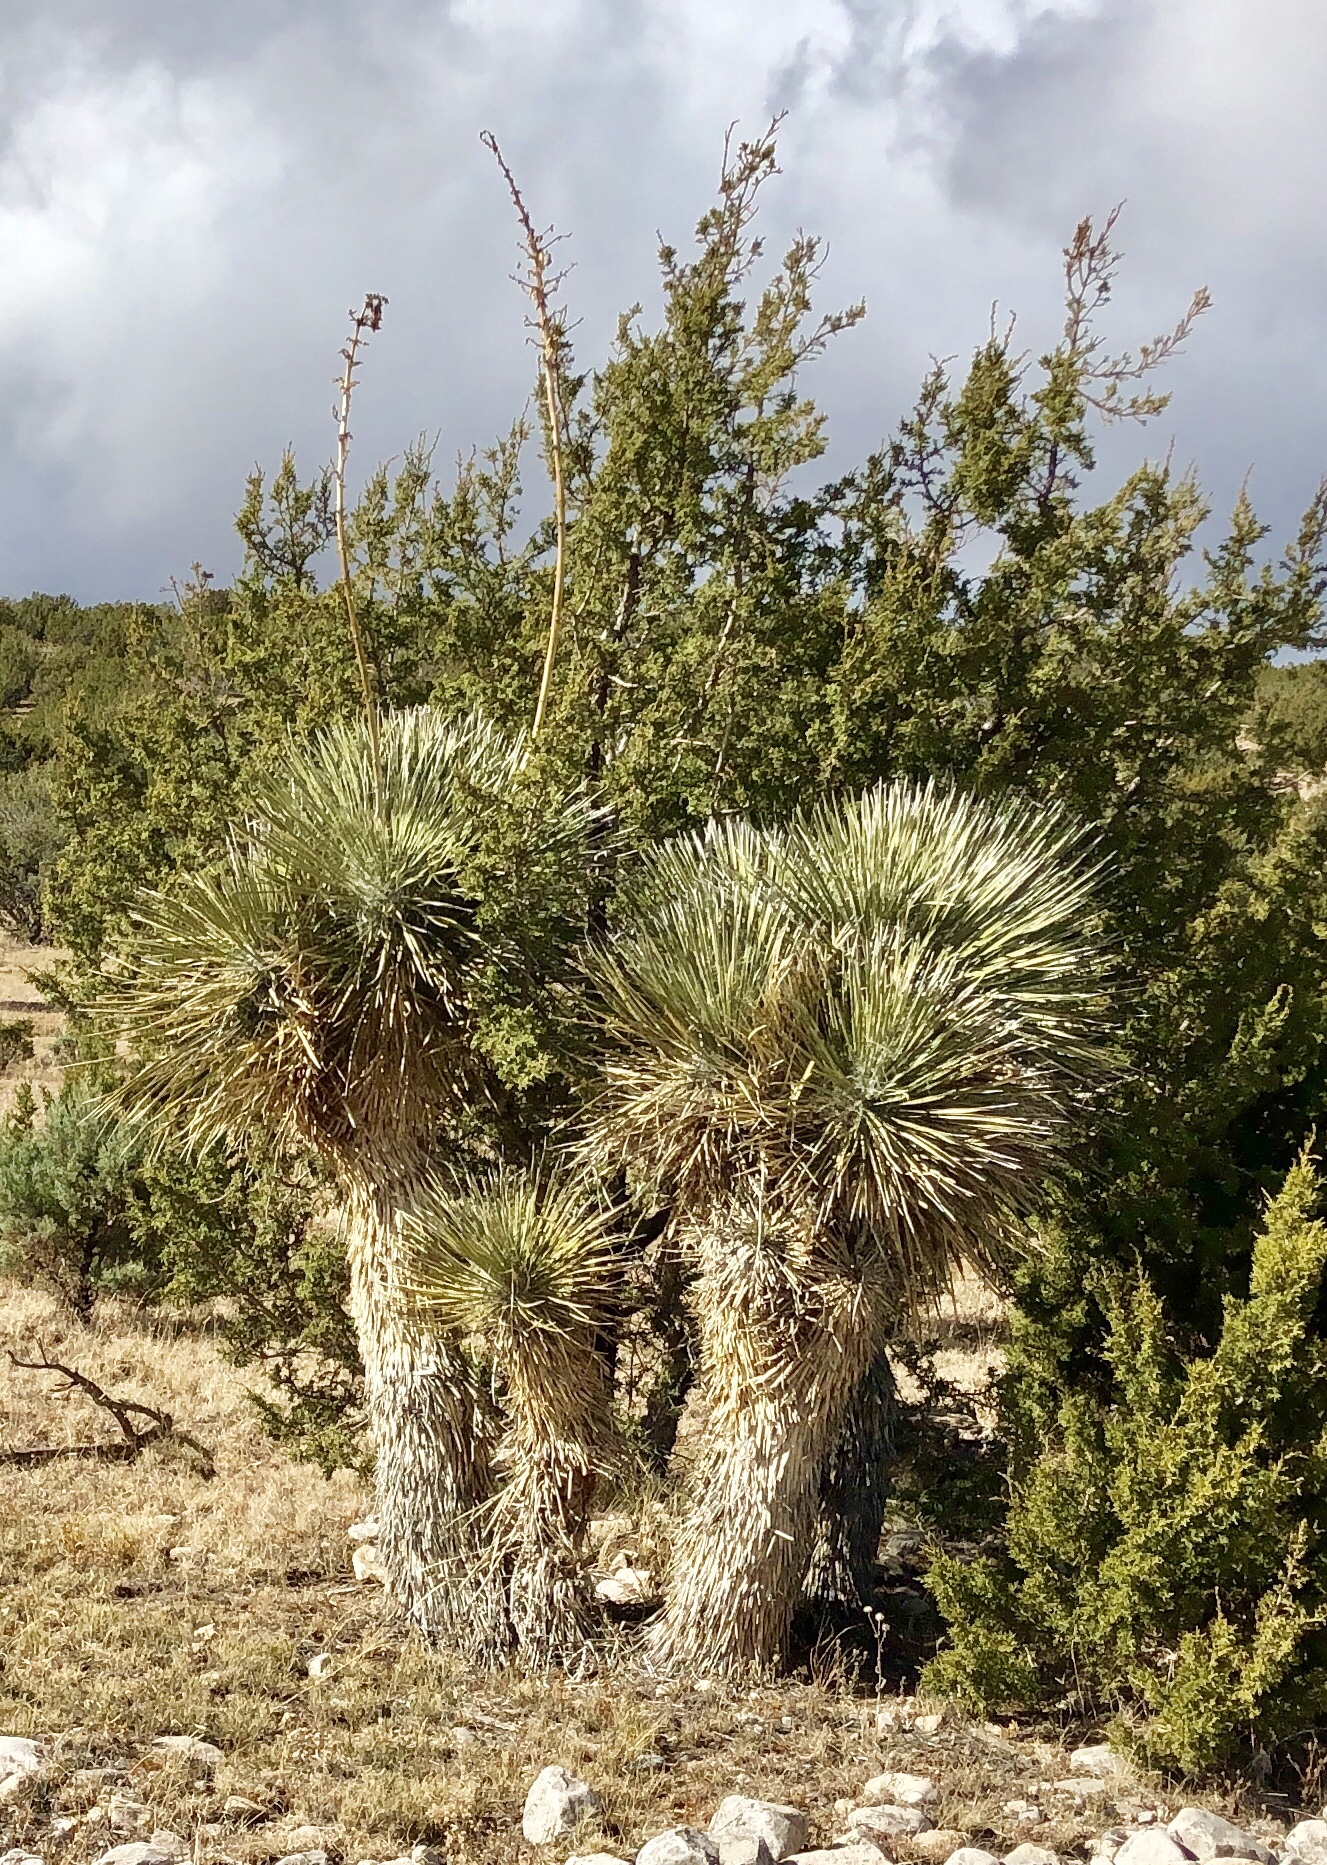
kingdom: Plantae
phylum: Tracheophyta
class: Liliopsida
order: Asparagales
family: Asparagaceae
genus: Yucca
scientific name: Yucca elata
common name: Palmella
